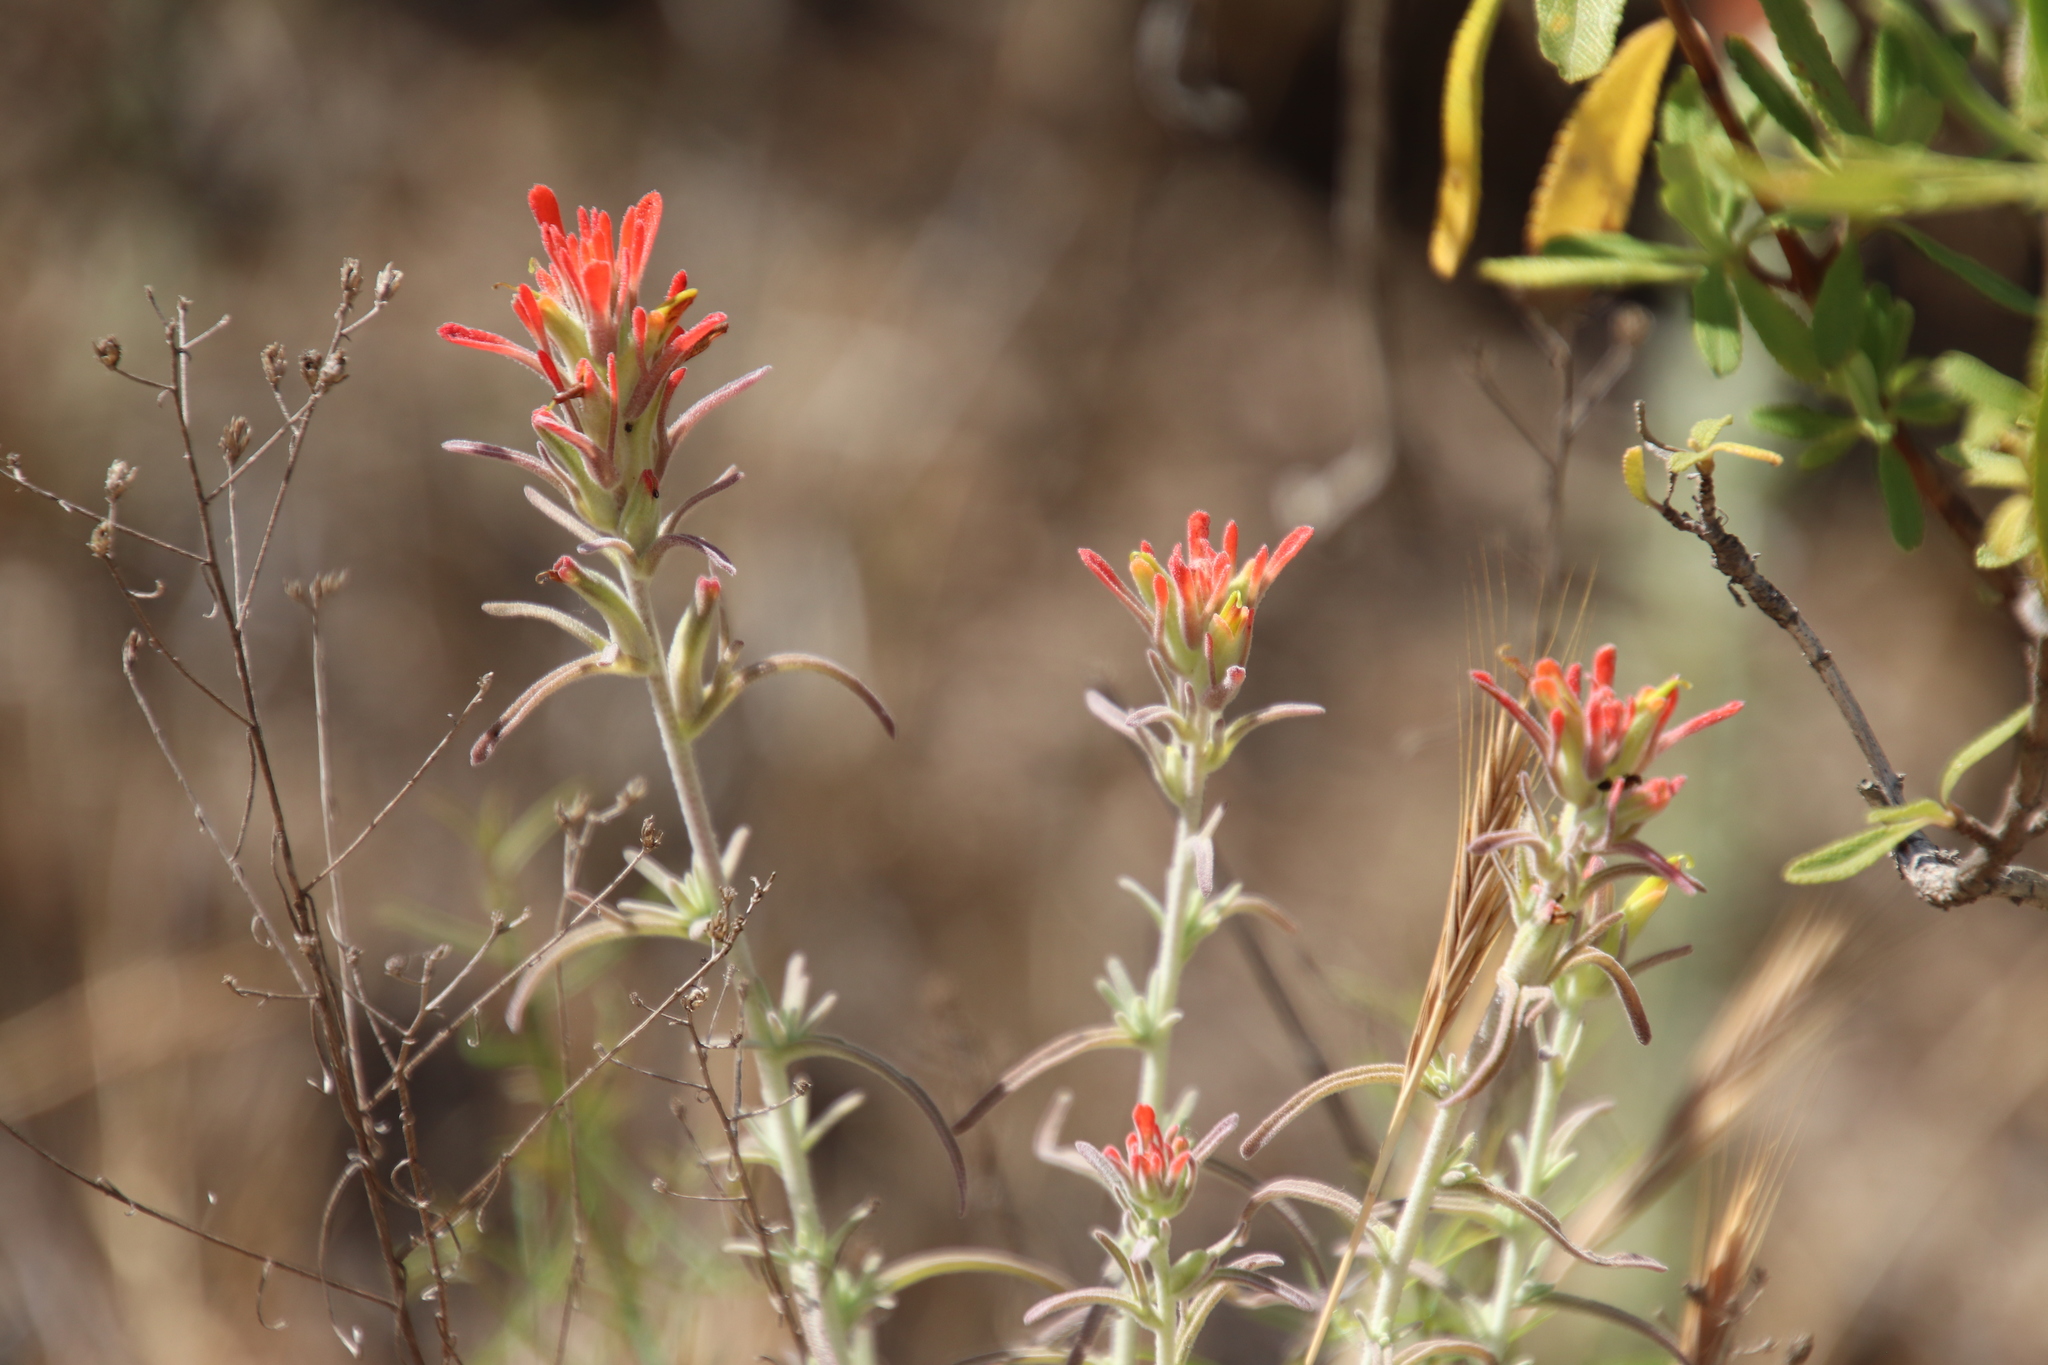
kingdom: Plantae
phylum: Tracheophyta
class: Magnoliopsida
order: Lamiales
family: Orobanchaceae
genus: Castilleja
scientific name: Castilleja foliolosa
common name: Woolly indian paintbrush
